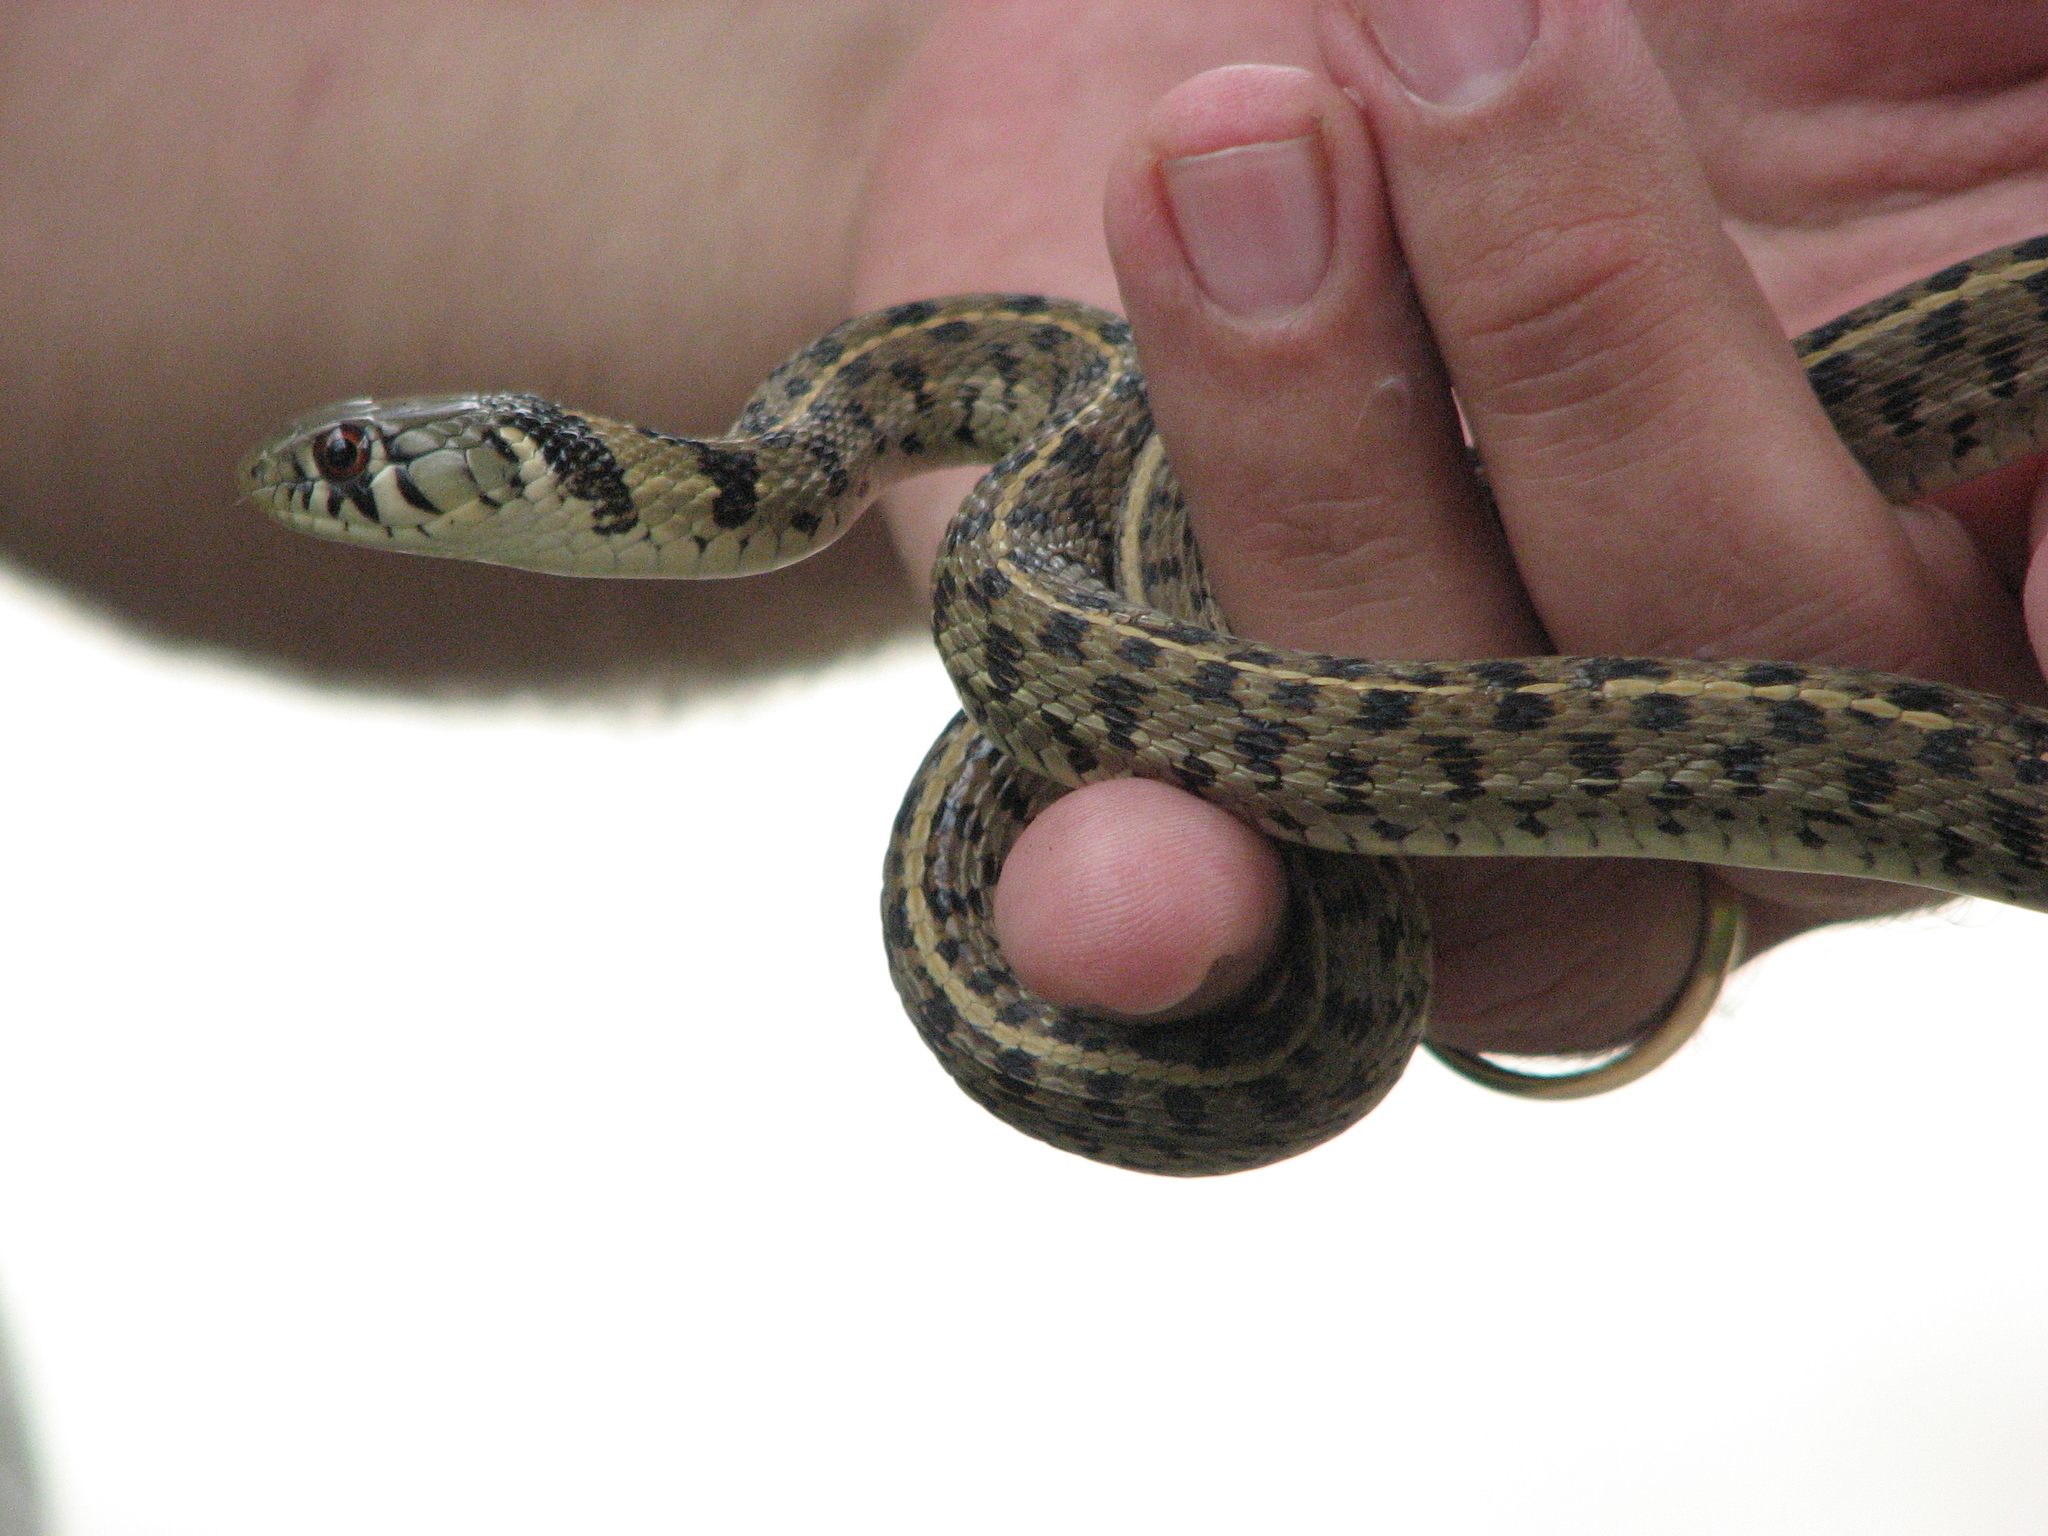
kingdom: Animalia
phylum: Chordata
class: Squamata
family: Colubridae
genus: Thamnophis
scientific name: Thamnophis marcianus
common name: Checkered garter snake
